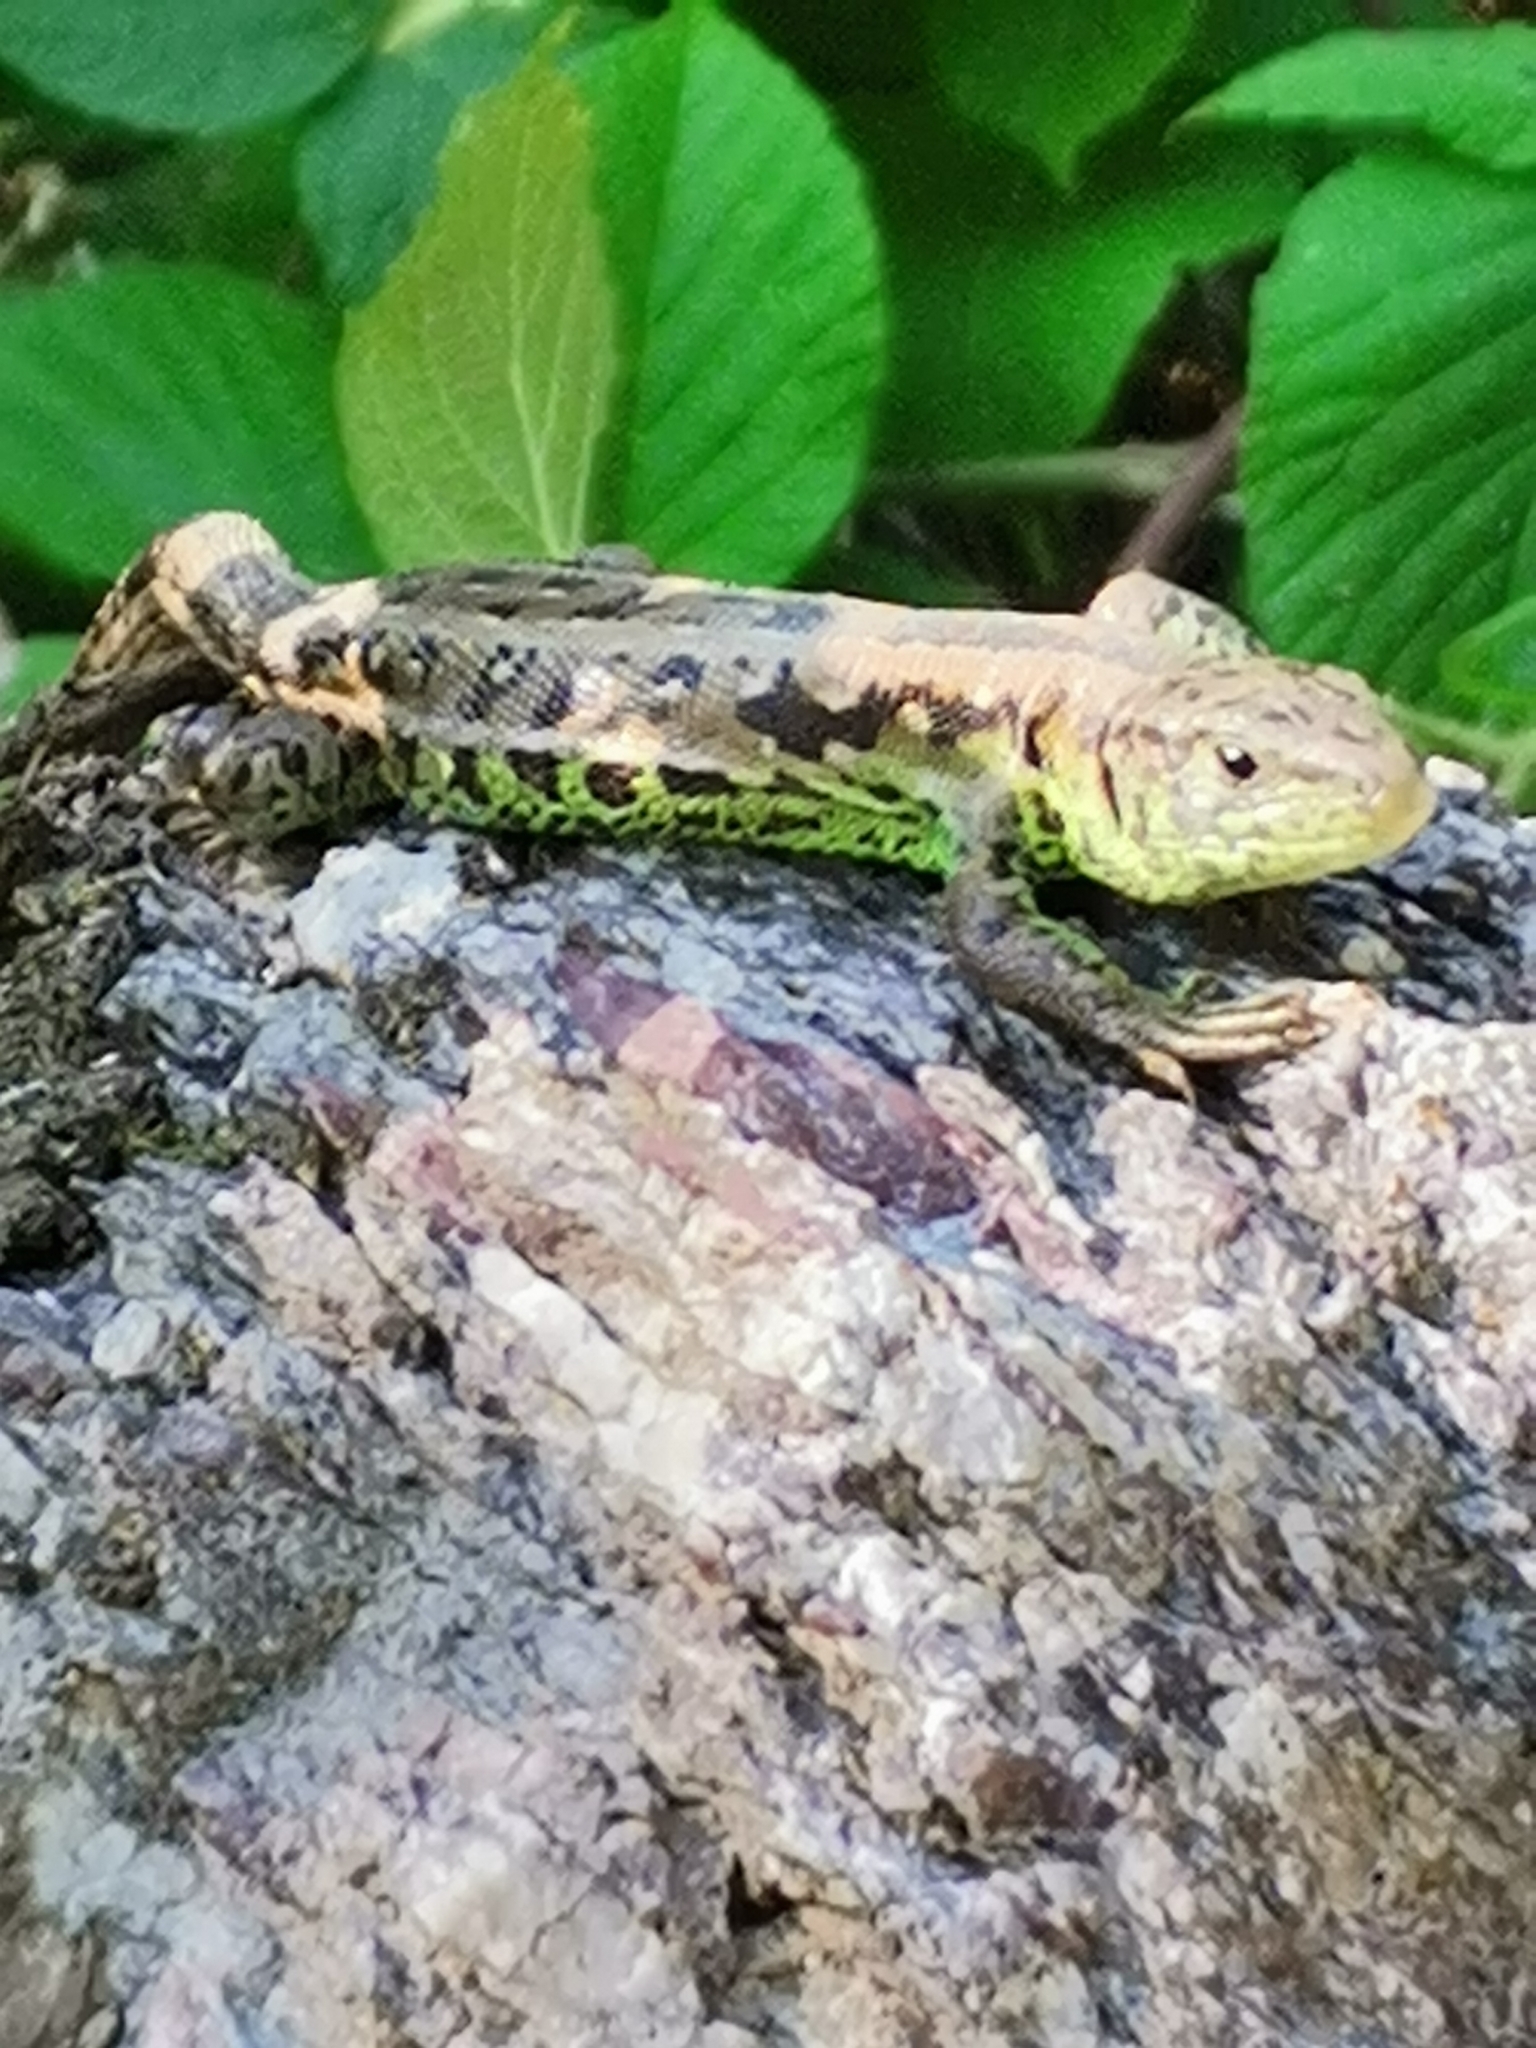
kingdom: Animalia
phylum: Chordata
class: Squamata
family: Lacertidae
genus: Lacerta
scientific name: Lacerta agilis
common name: Sand lizard
